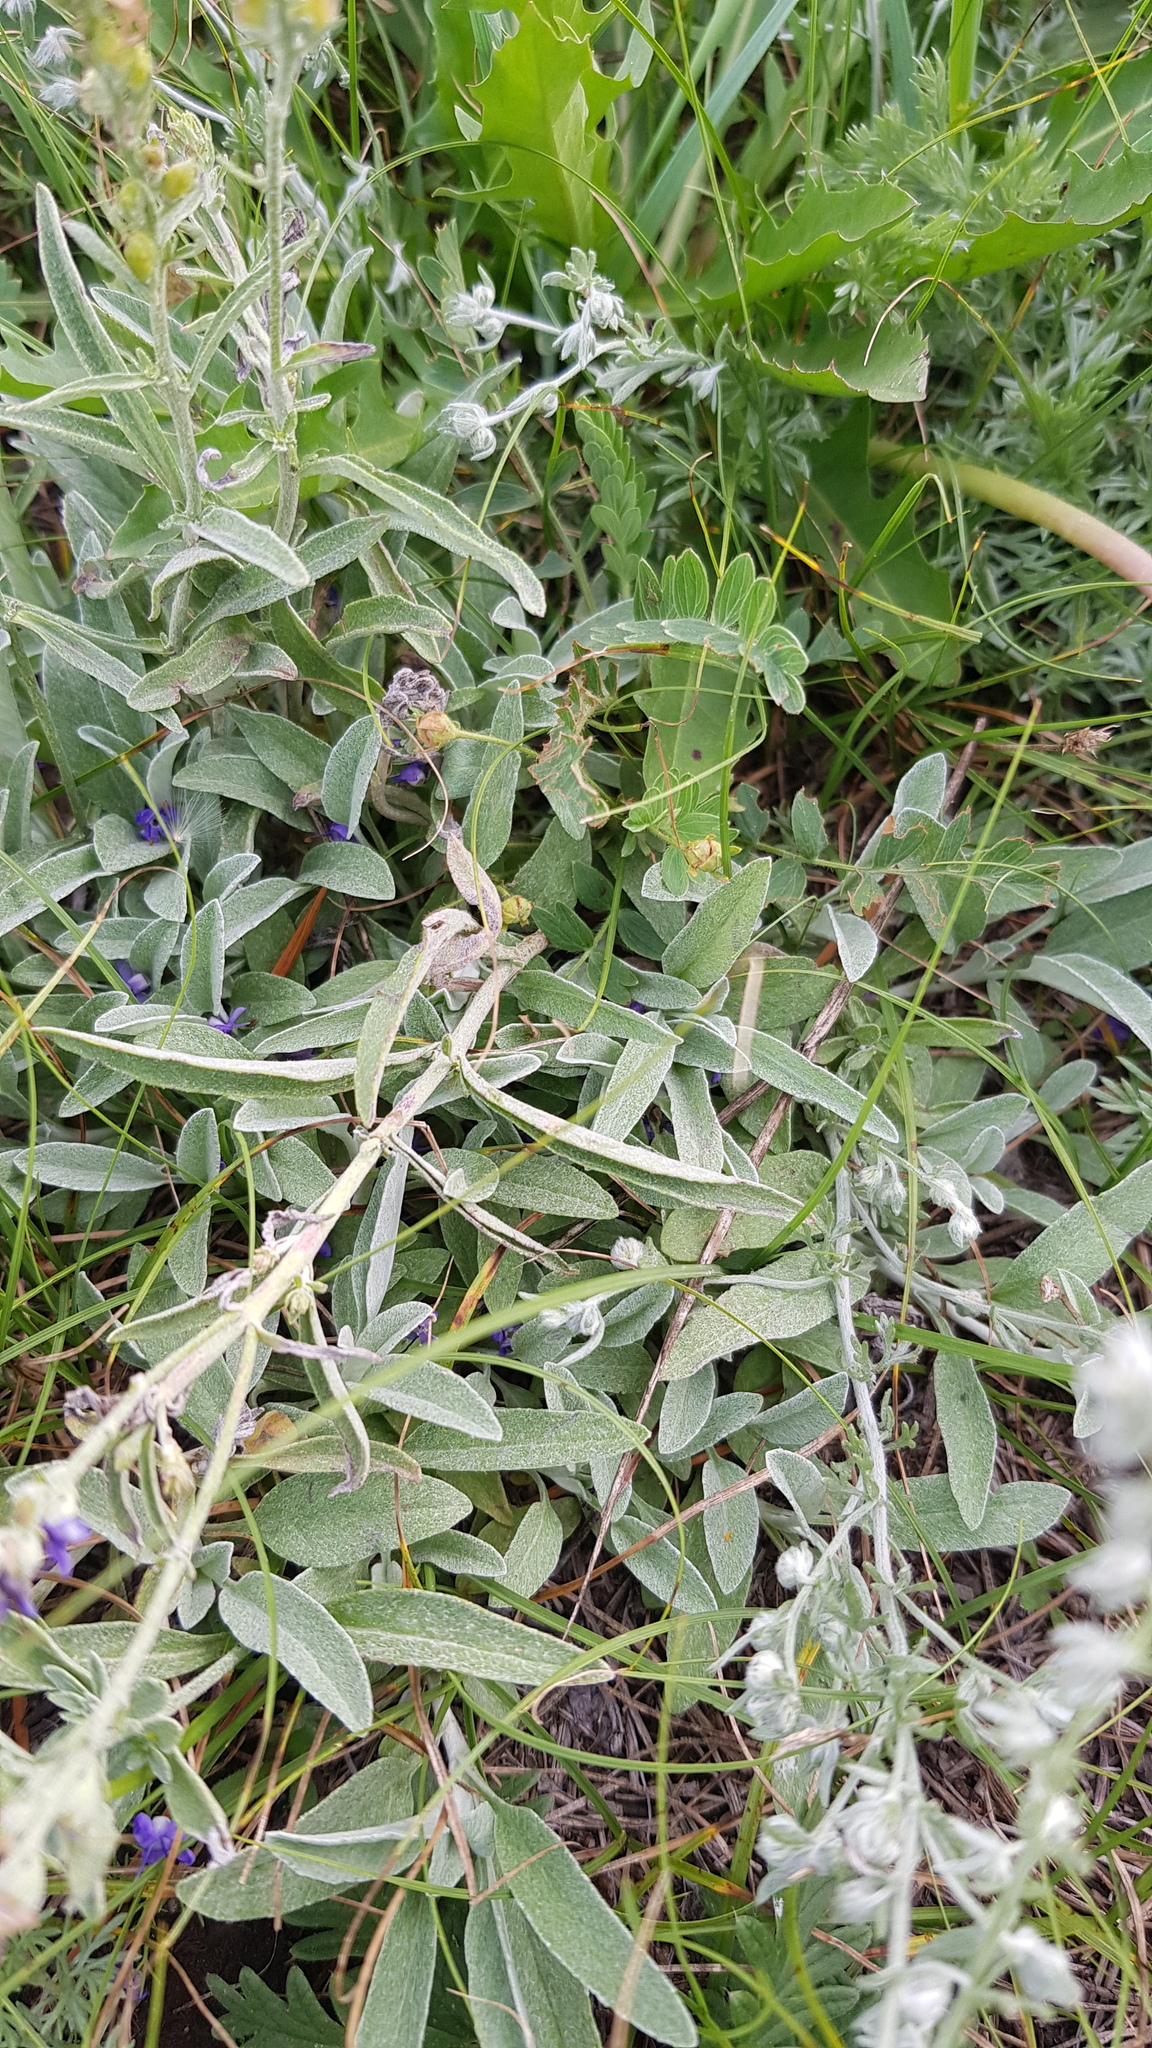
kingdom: Plantae
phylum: Tracheophyta
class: Magnoliopsida
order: Lamiales
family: Plantaginaceae
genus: Veronica
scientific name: Veronica incana
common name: Silver speedwell
